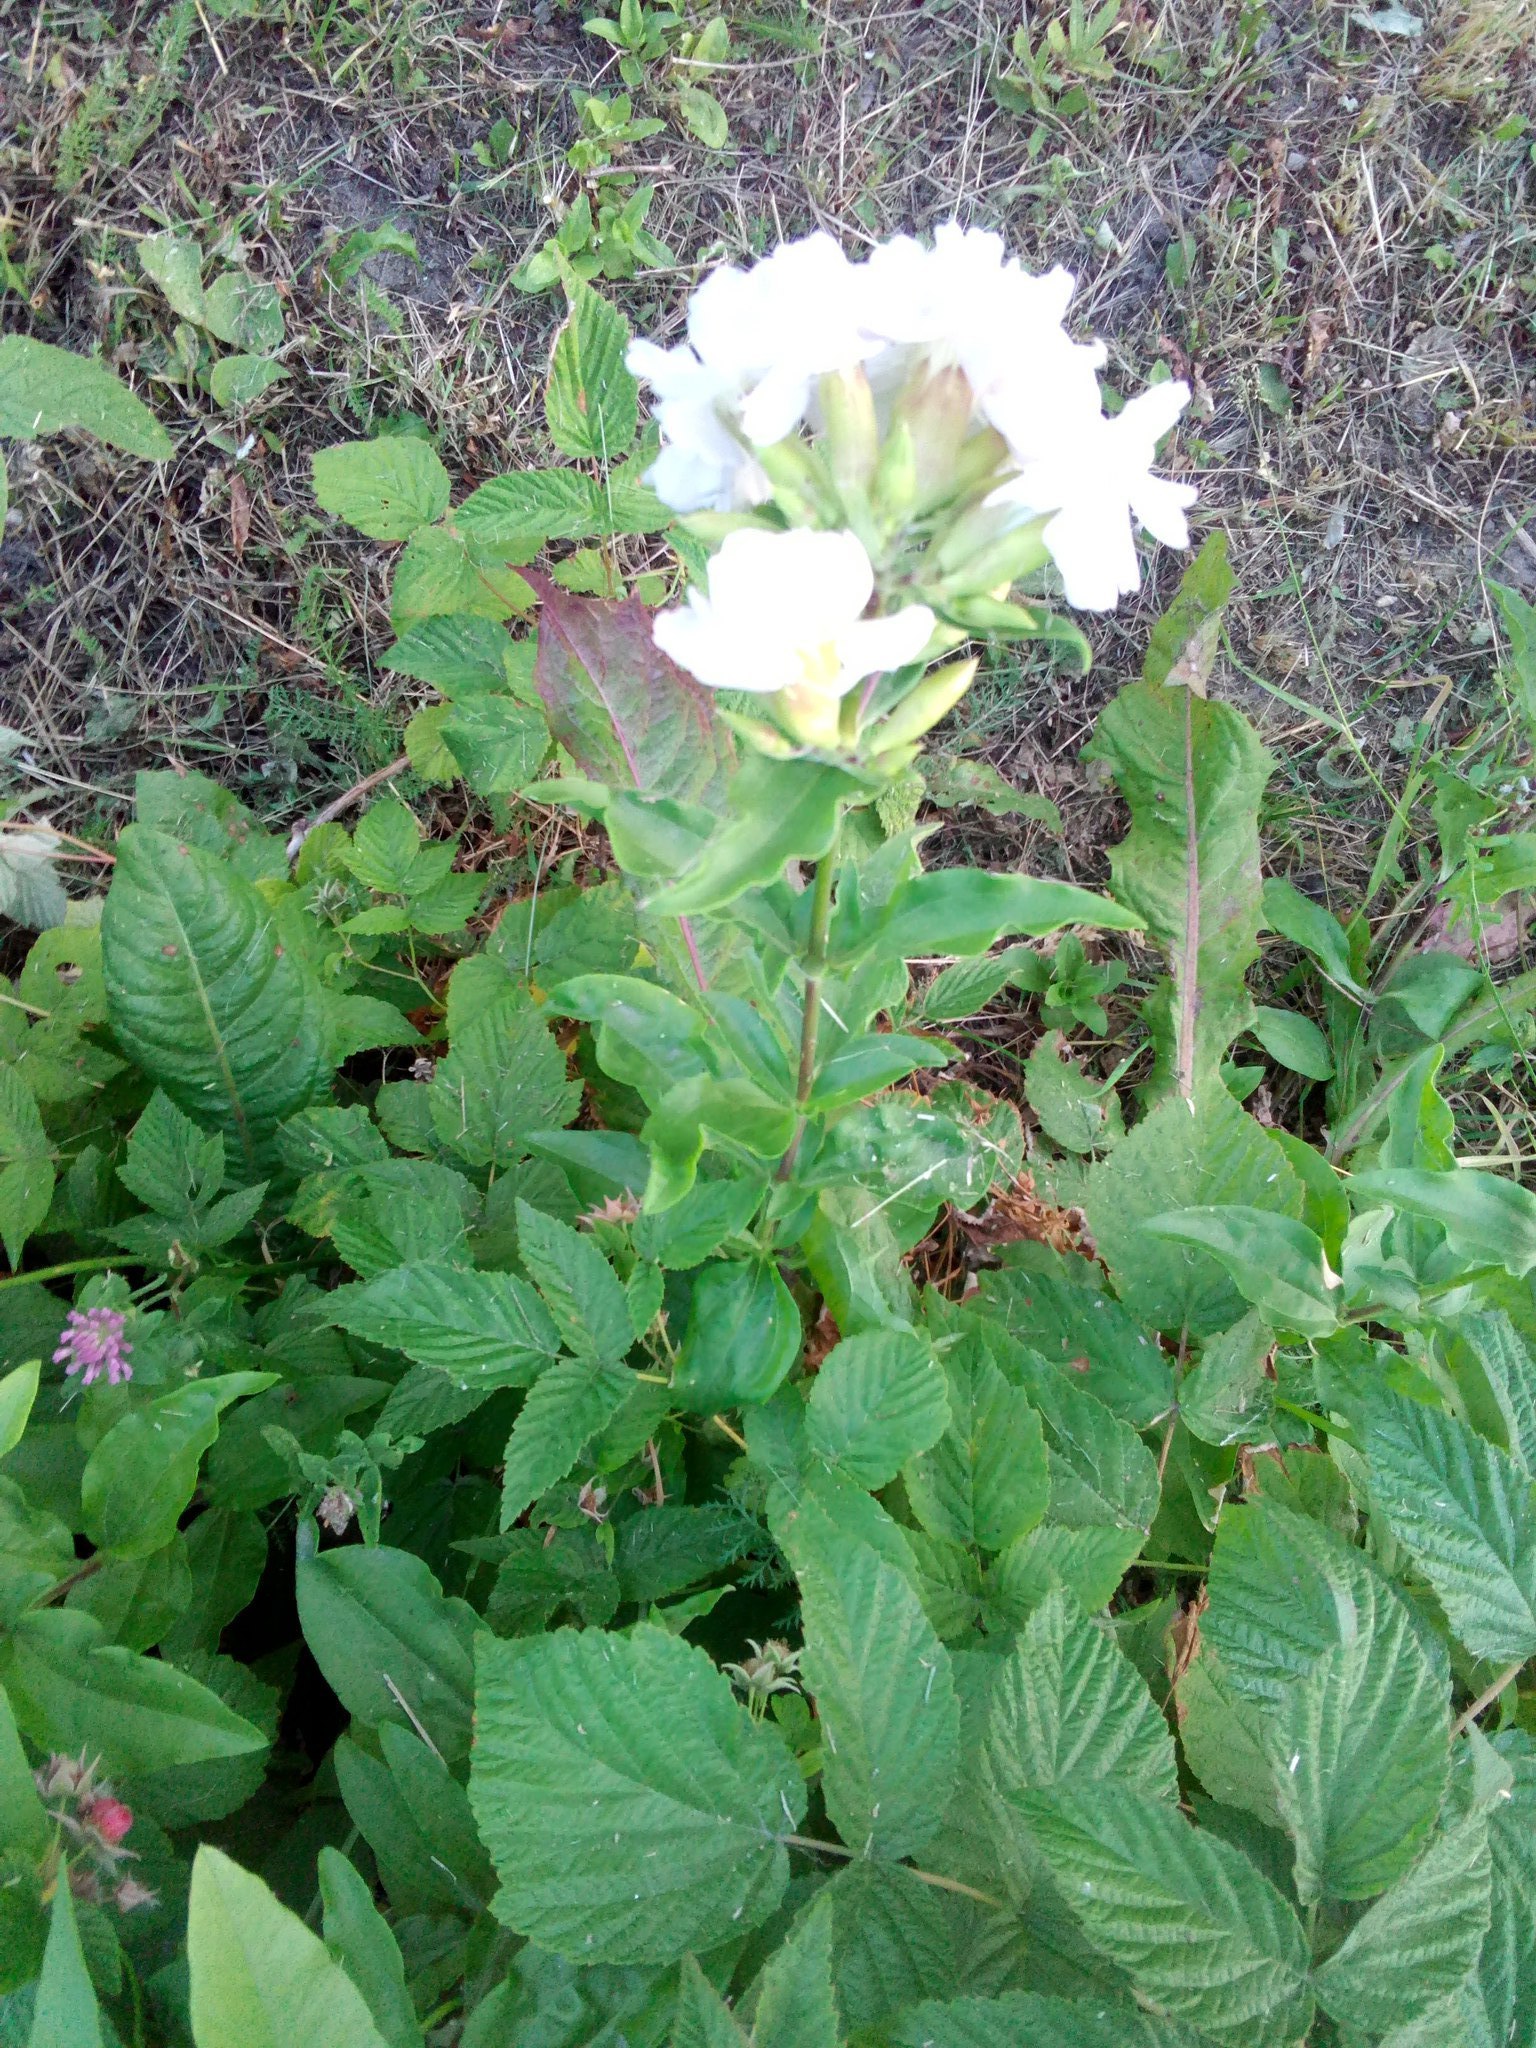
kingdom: Plantae
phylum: Tracheophyta
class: Magnoliopsida
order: Caryophyllales
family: Caryophyllaceae
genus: Saponaria
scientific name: Saponaria officinalis
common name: Soapwort
